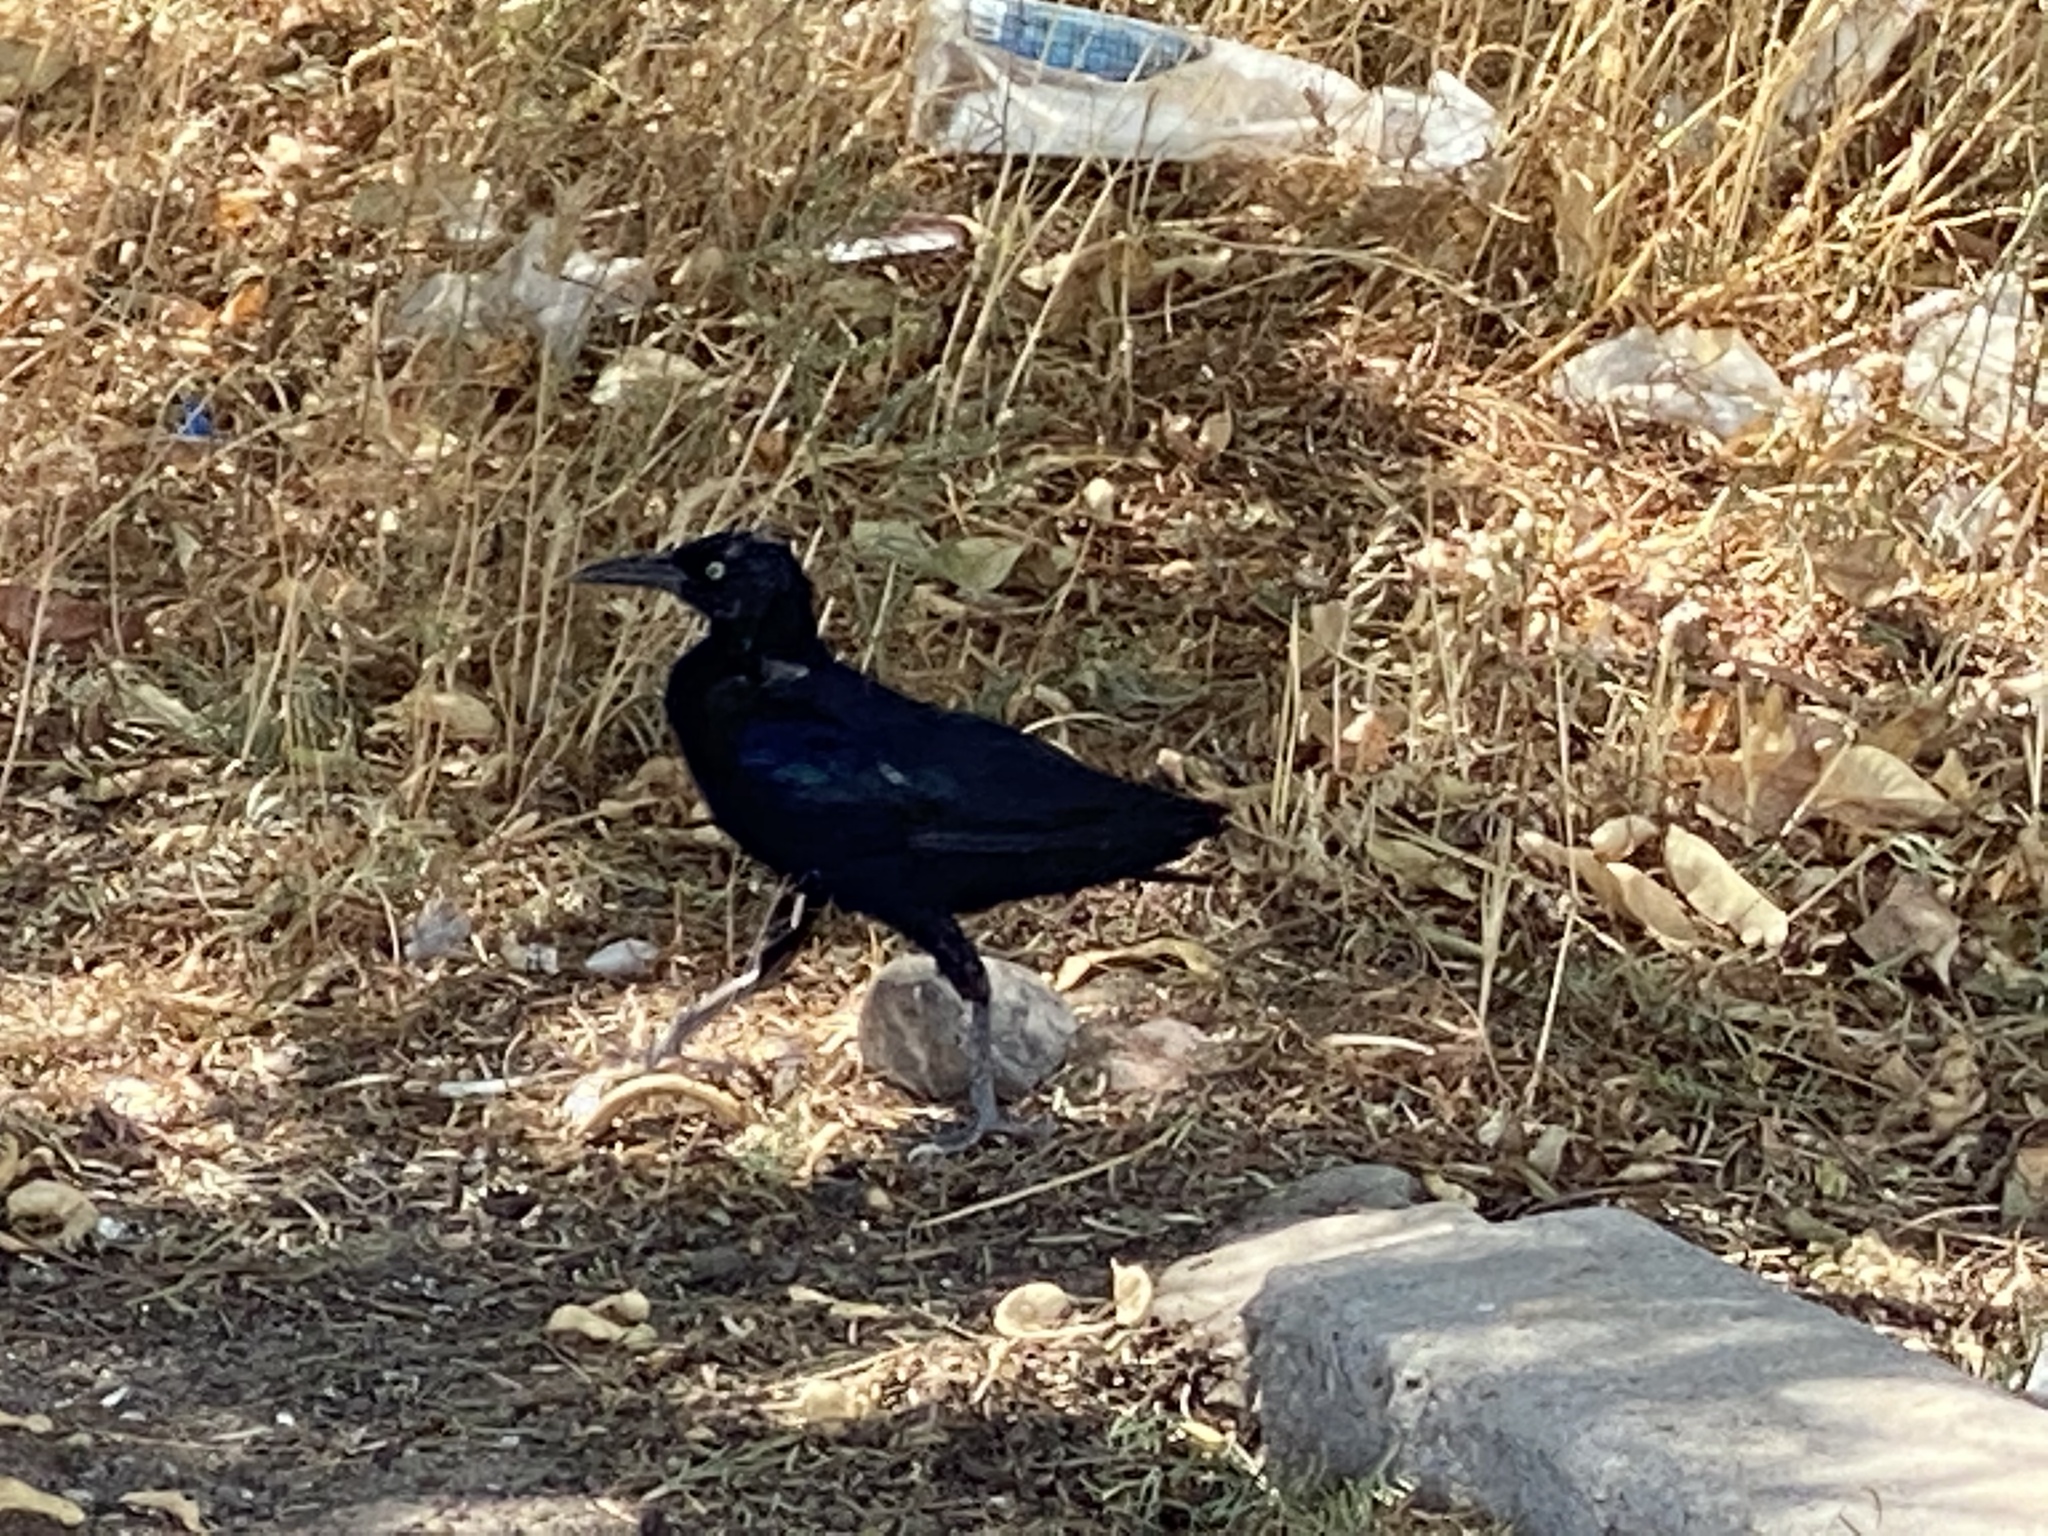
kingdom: Animalia
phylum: Chordata
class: Aves
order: Passeriformes
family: Icteridae
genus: Quiscalus
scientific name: Quiscalus mexicanus
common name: Great-tailed grackle
